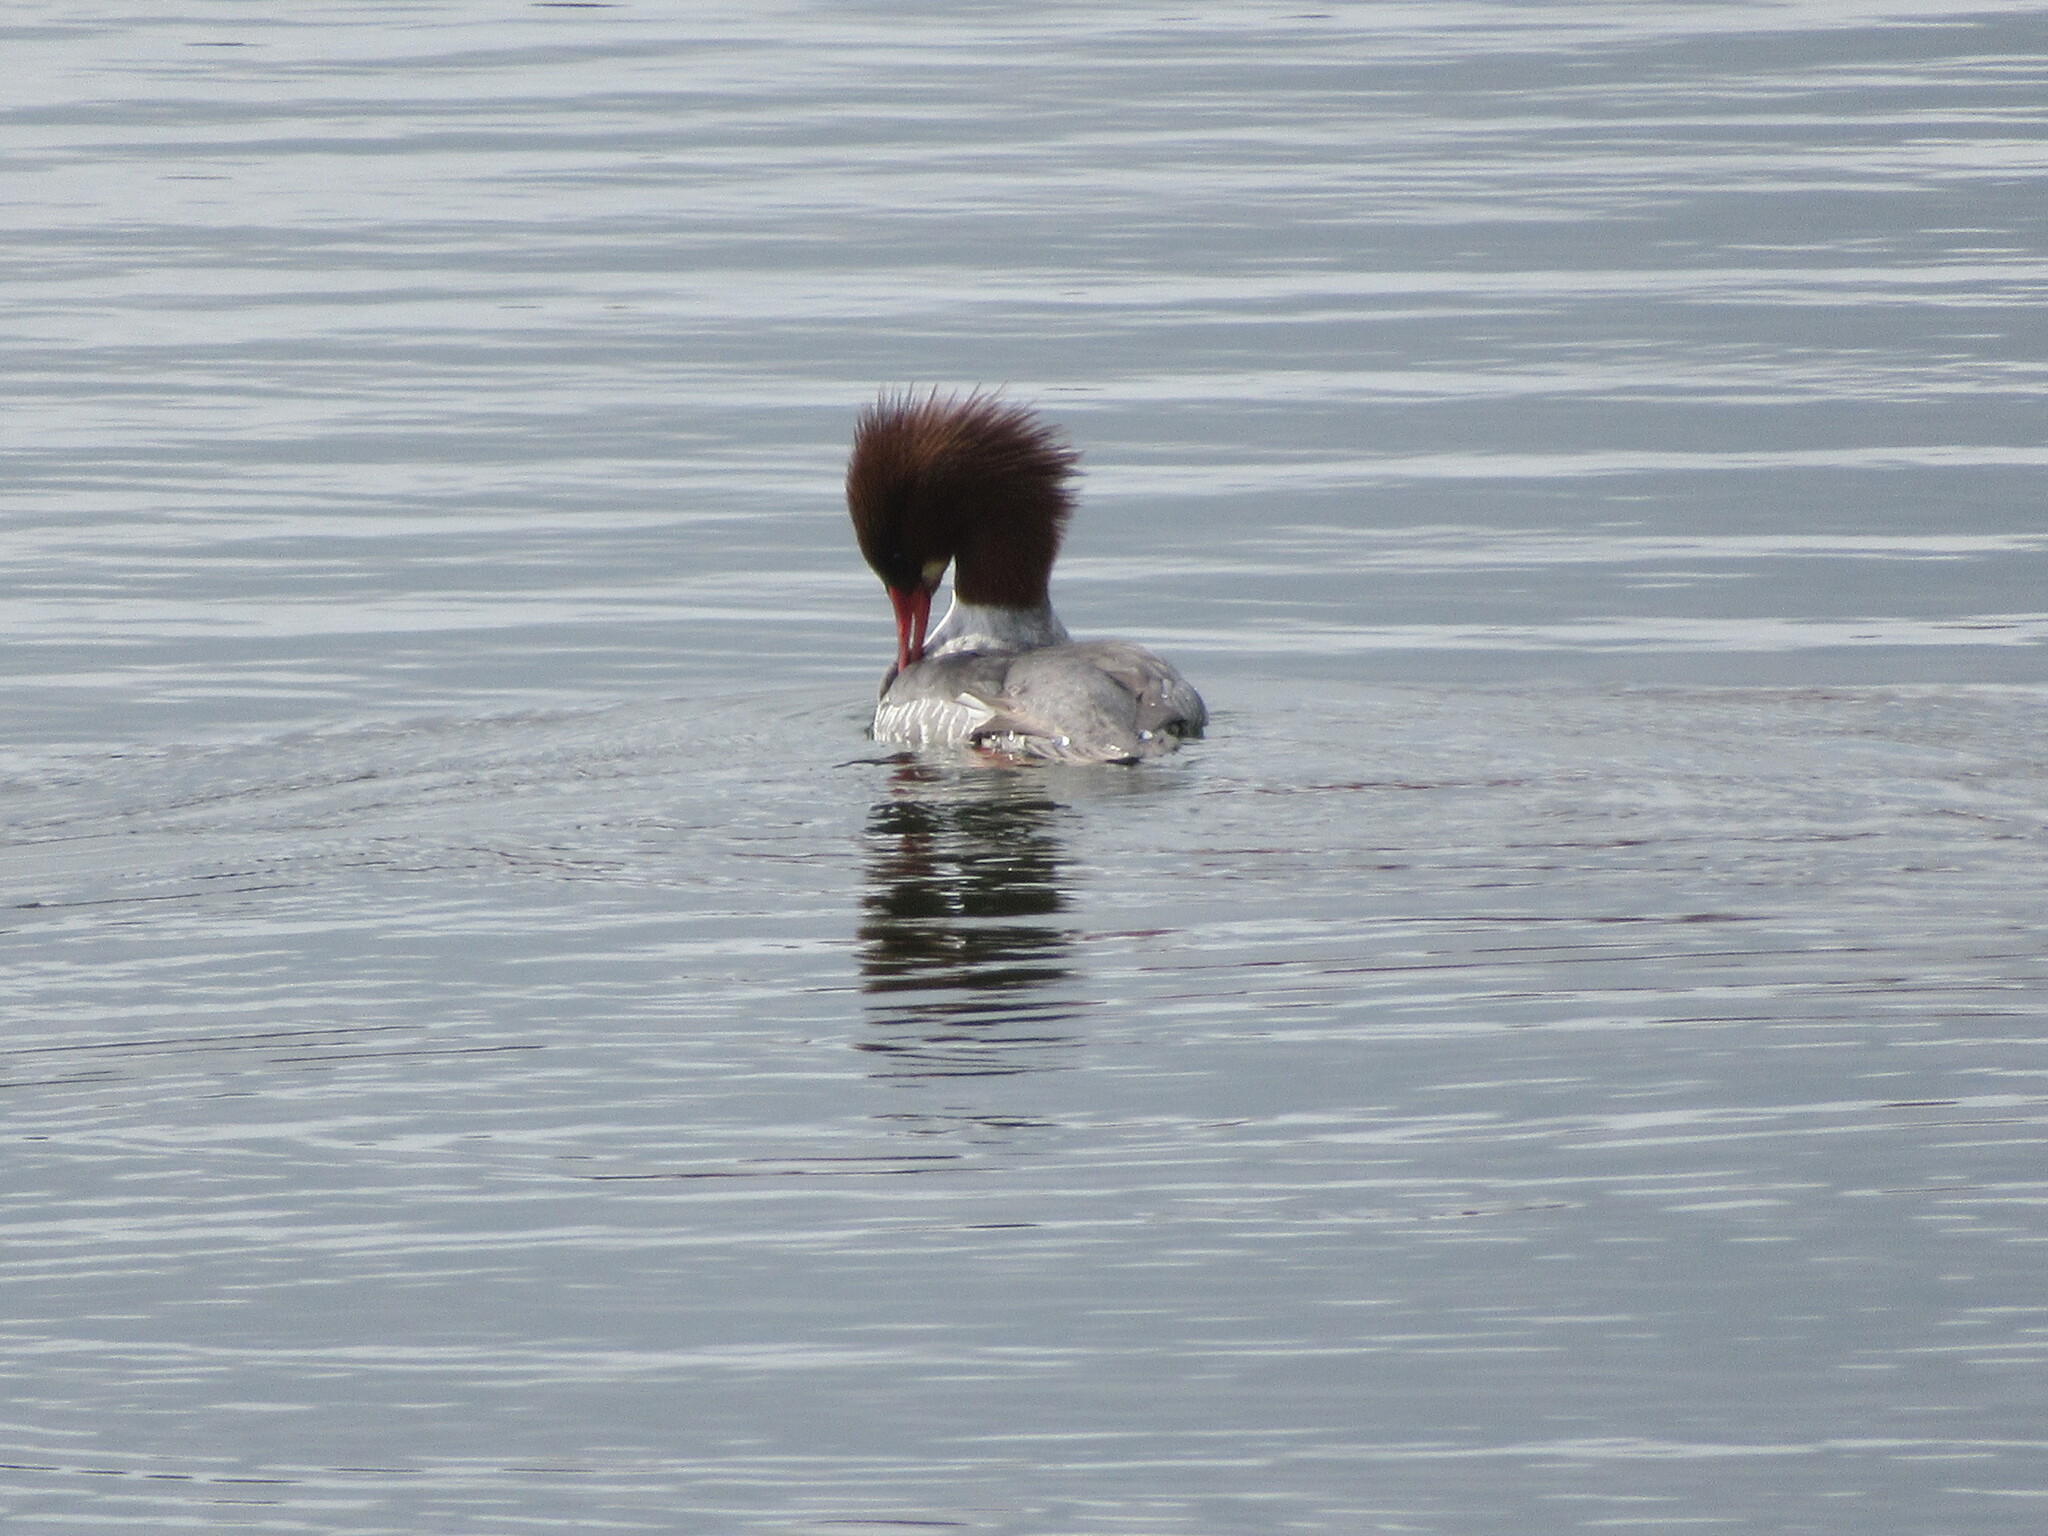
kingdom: Animalia
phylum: Chordata
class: Aves
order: Anseriformes
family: Anatidae
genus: Mergus
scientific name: Mergus merganser
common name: Common merganser
